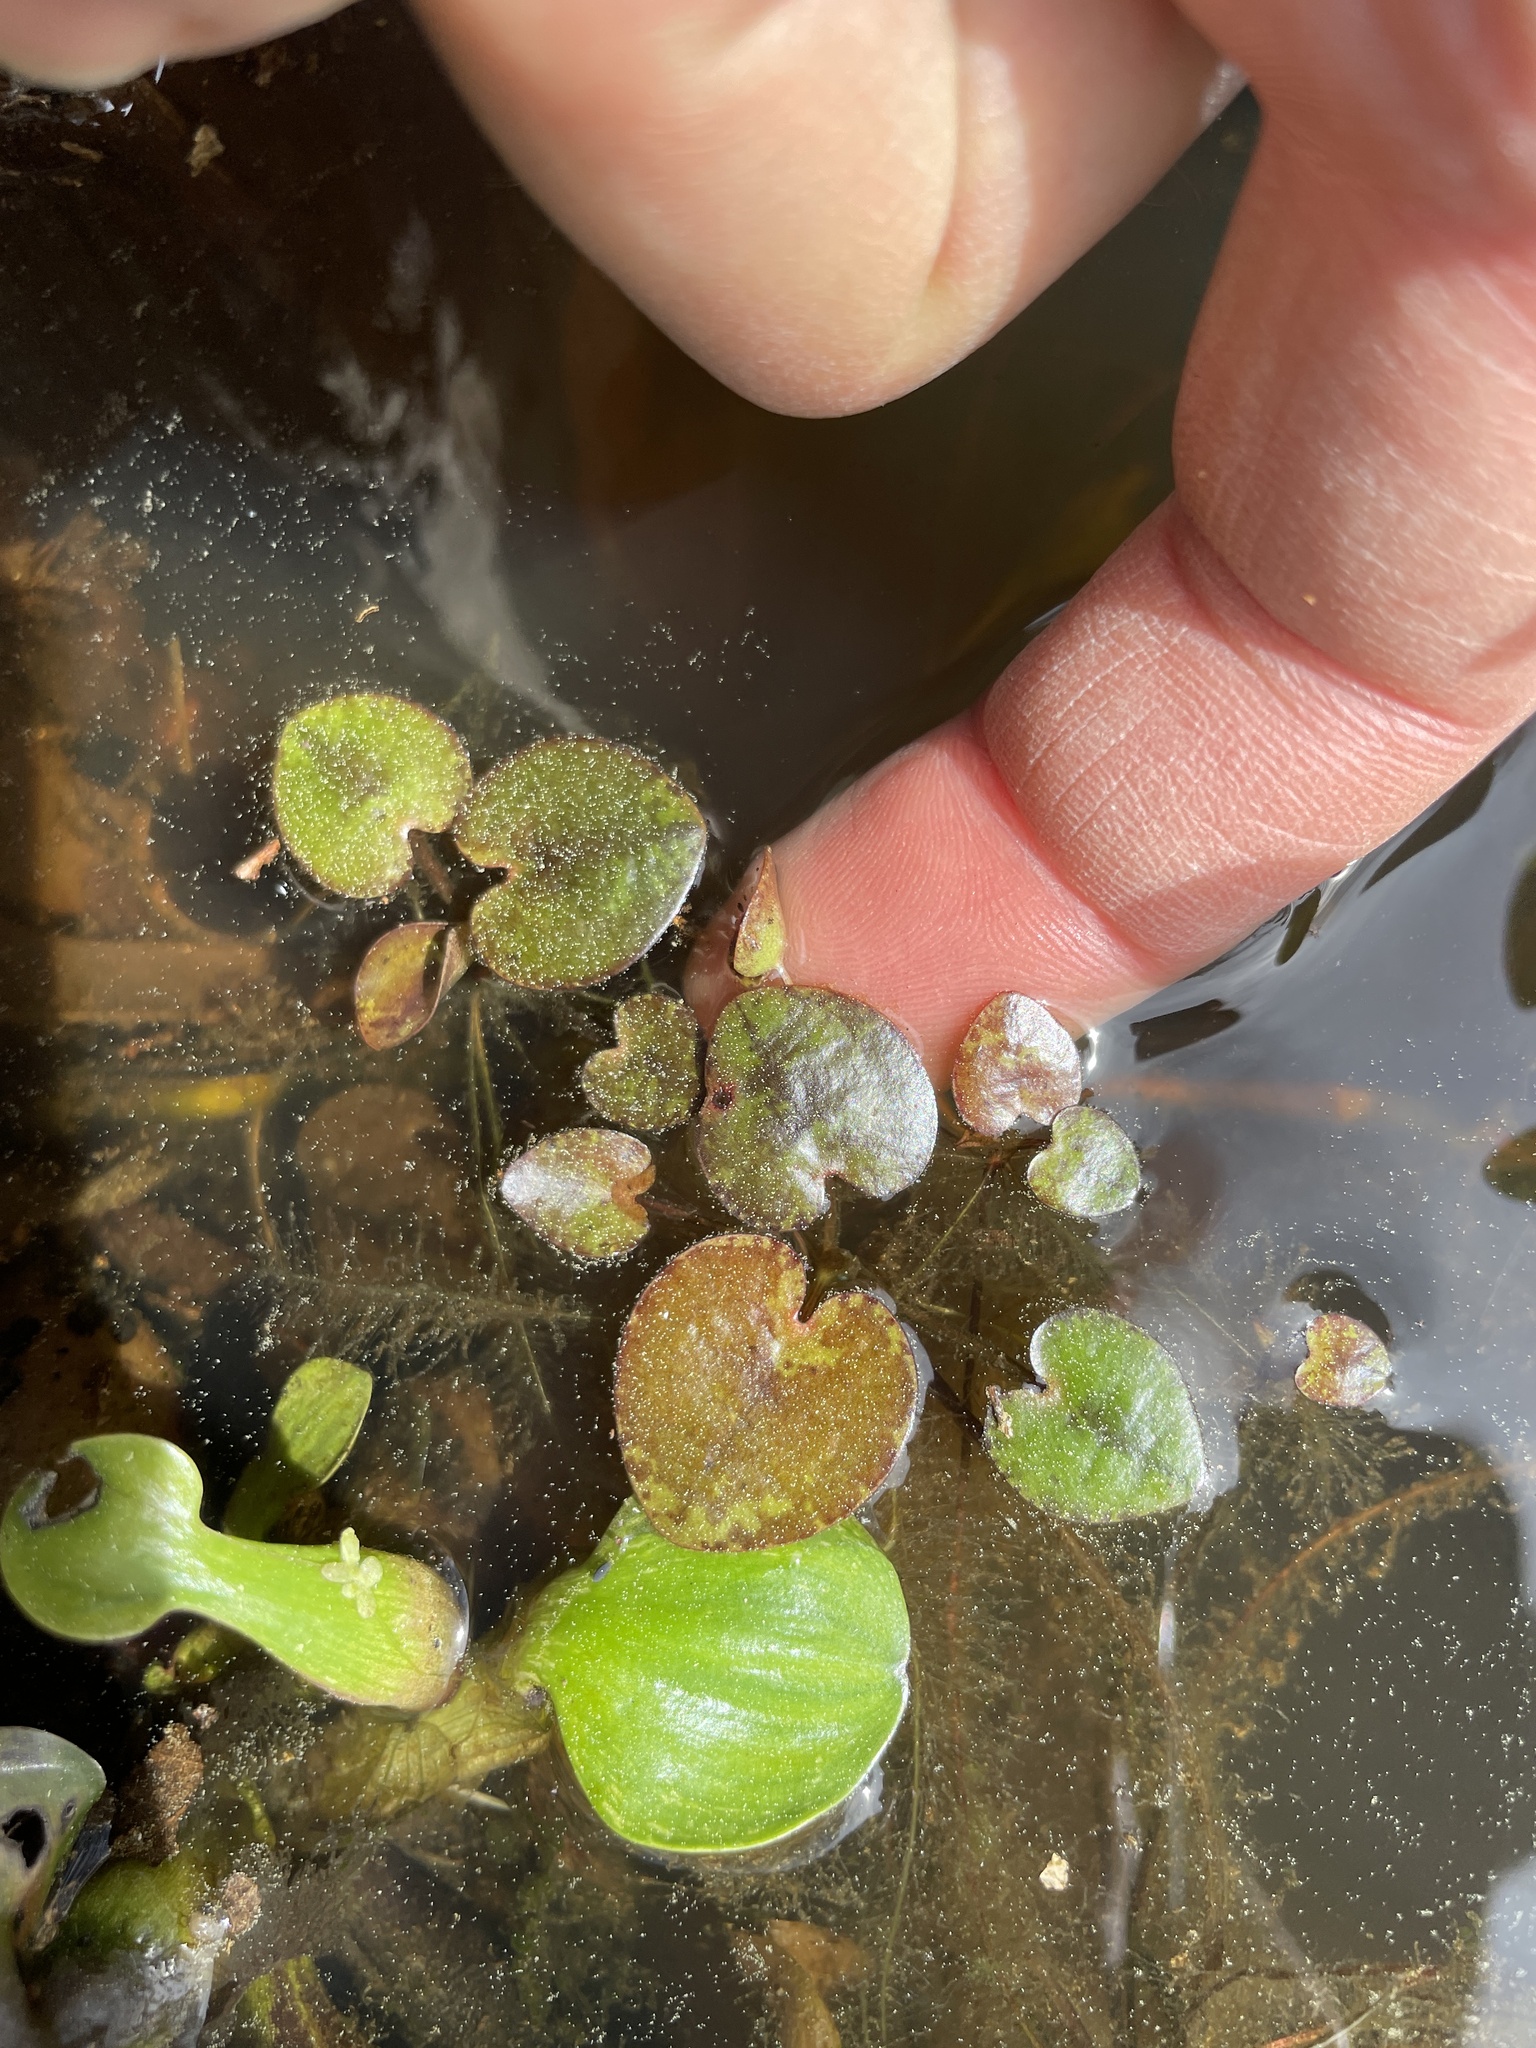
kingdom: Plantae
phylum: Tracheophyta
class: Liliopsida
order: Alismatales
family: Hydrocharitaceae
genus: Hydrocharis
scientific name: Hydrocharis spongia
